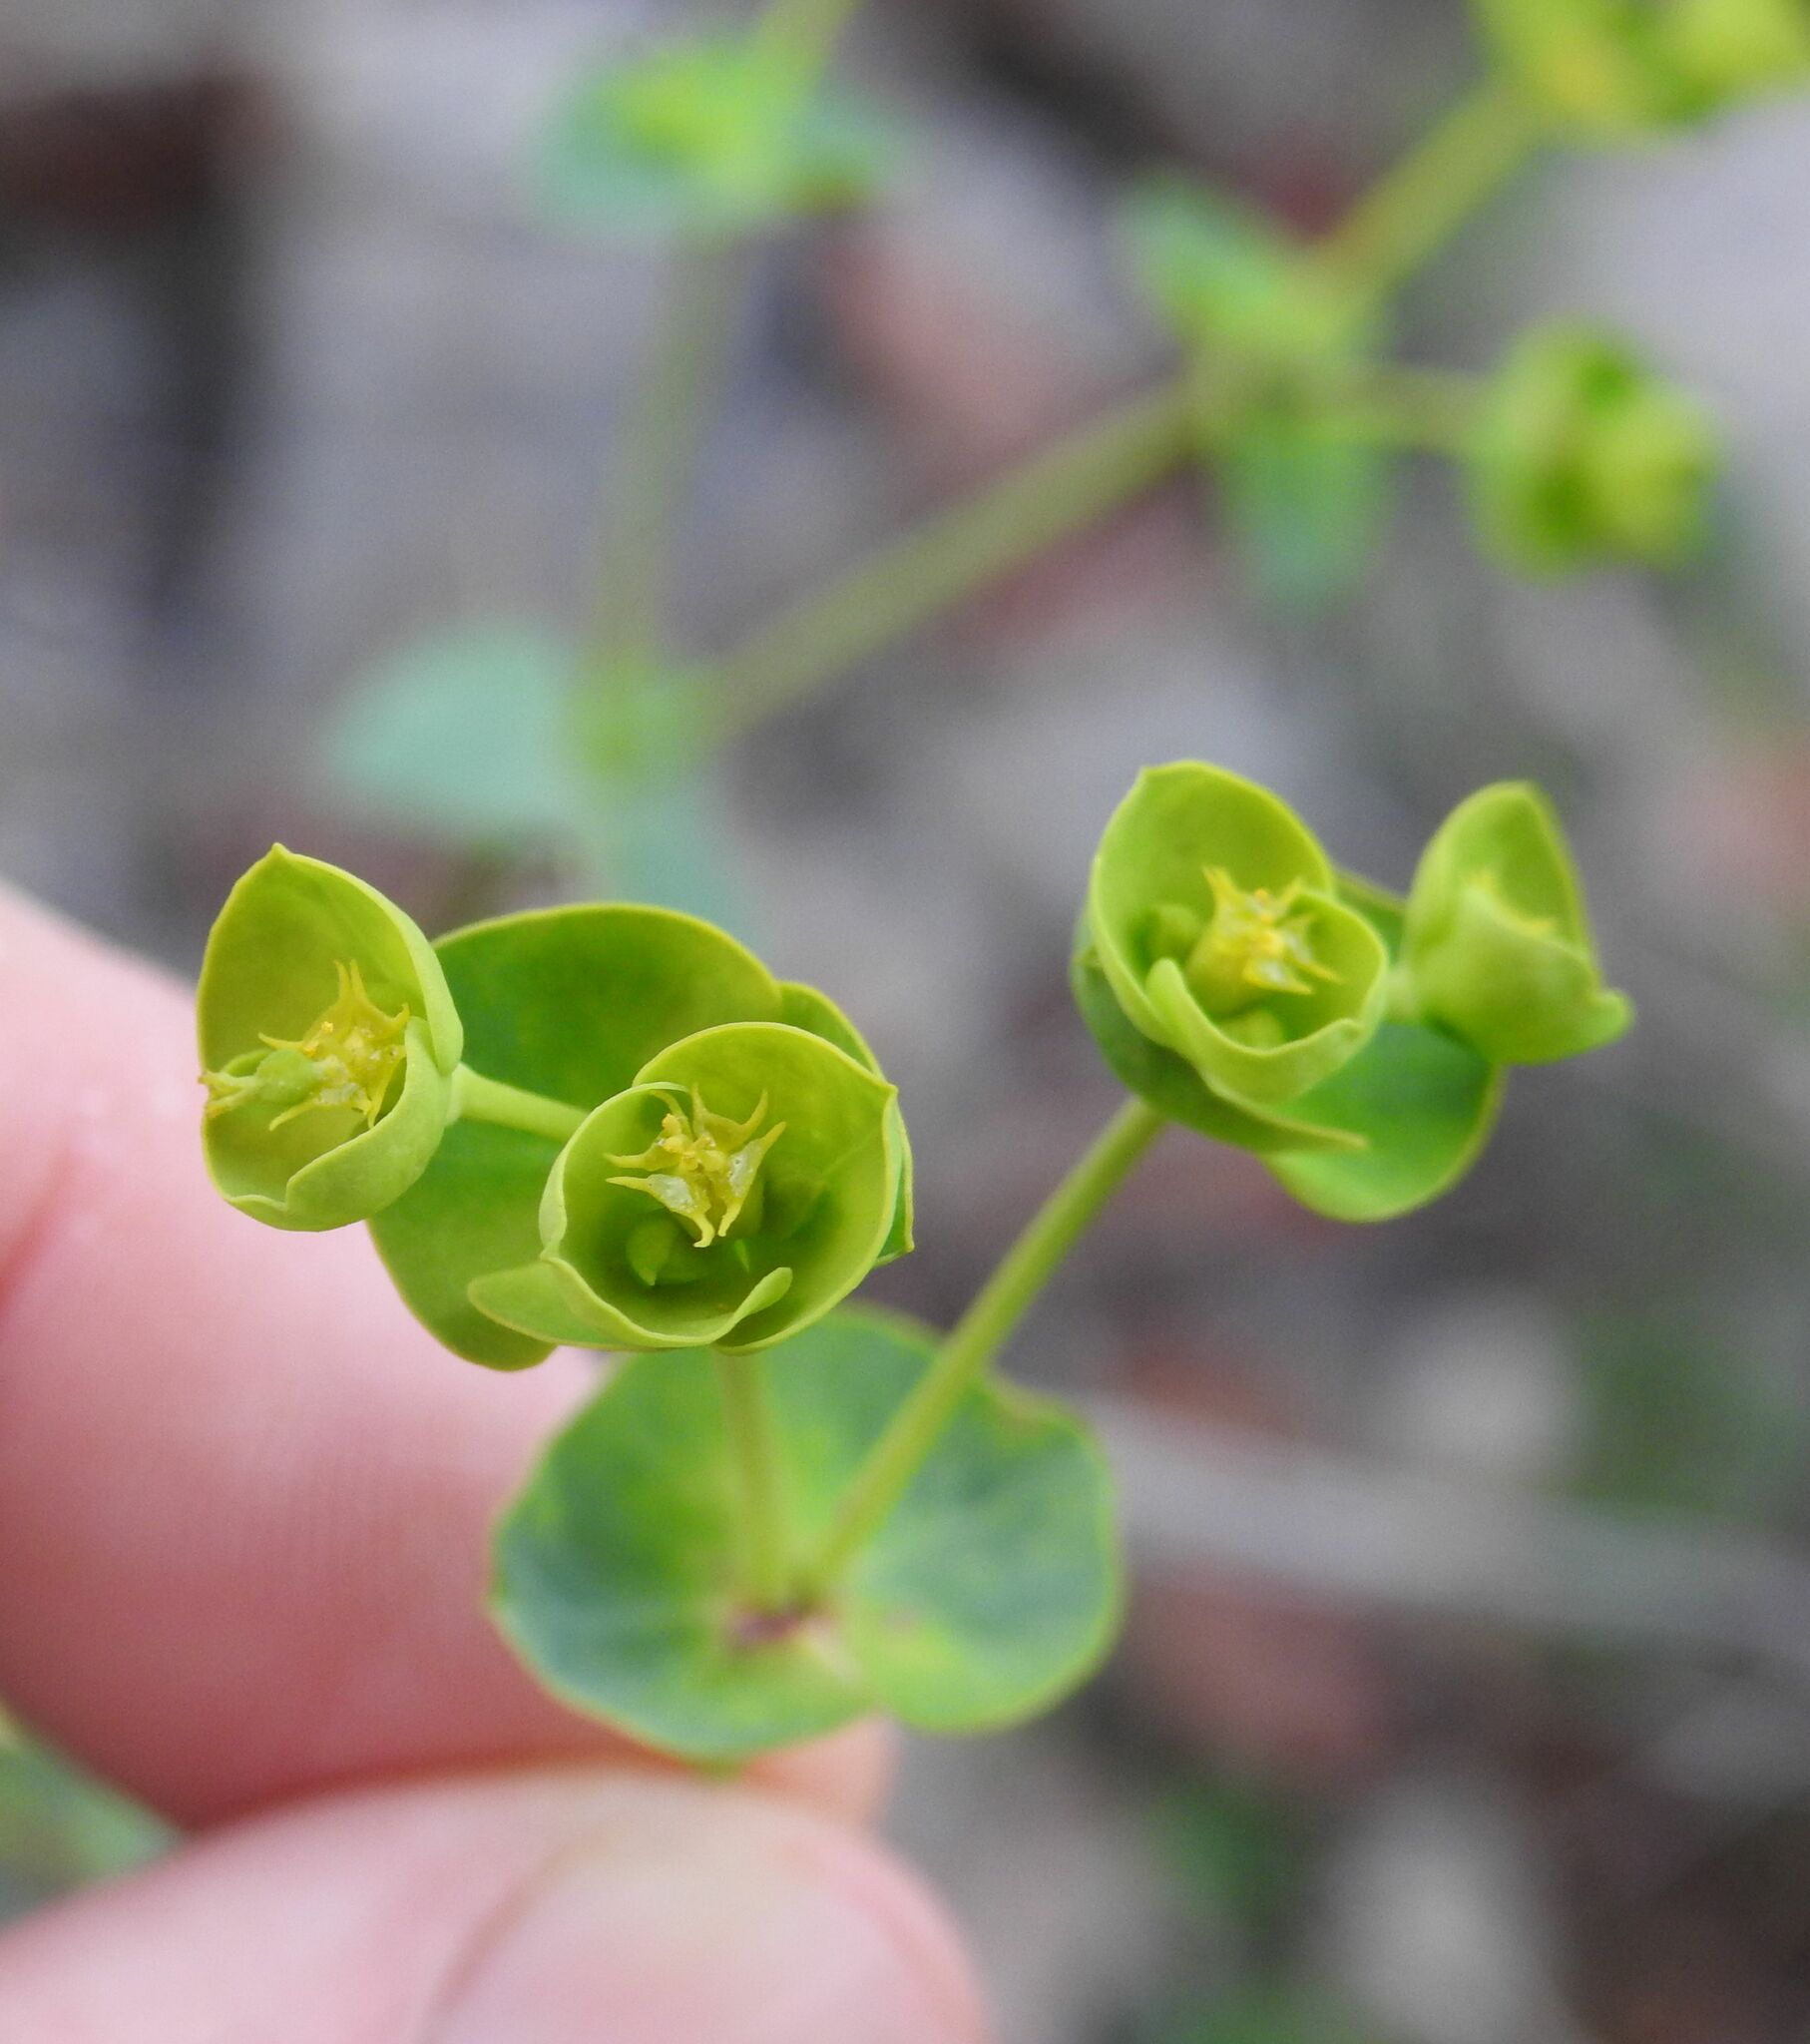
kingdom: Plantae
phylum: Tracheophyta
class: Magnoliopsida
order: Malpighiales
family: Euphorbiaceae
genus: Euphorbia
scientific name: Euphorbia segetalis
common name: Corn spurge
